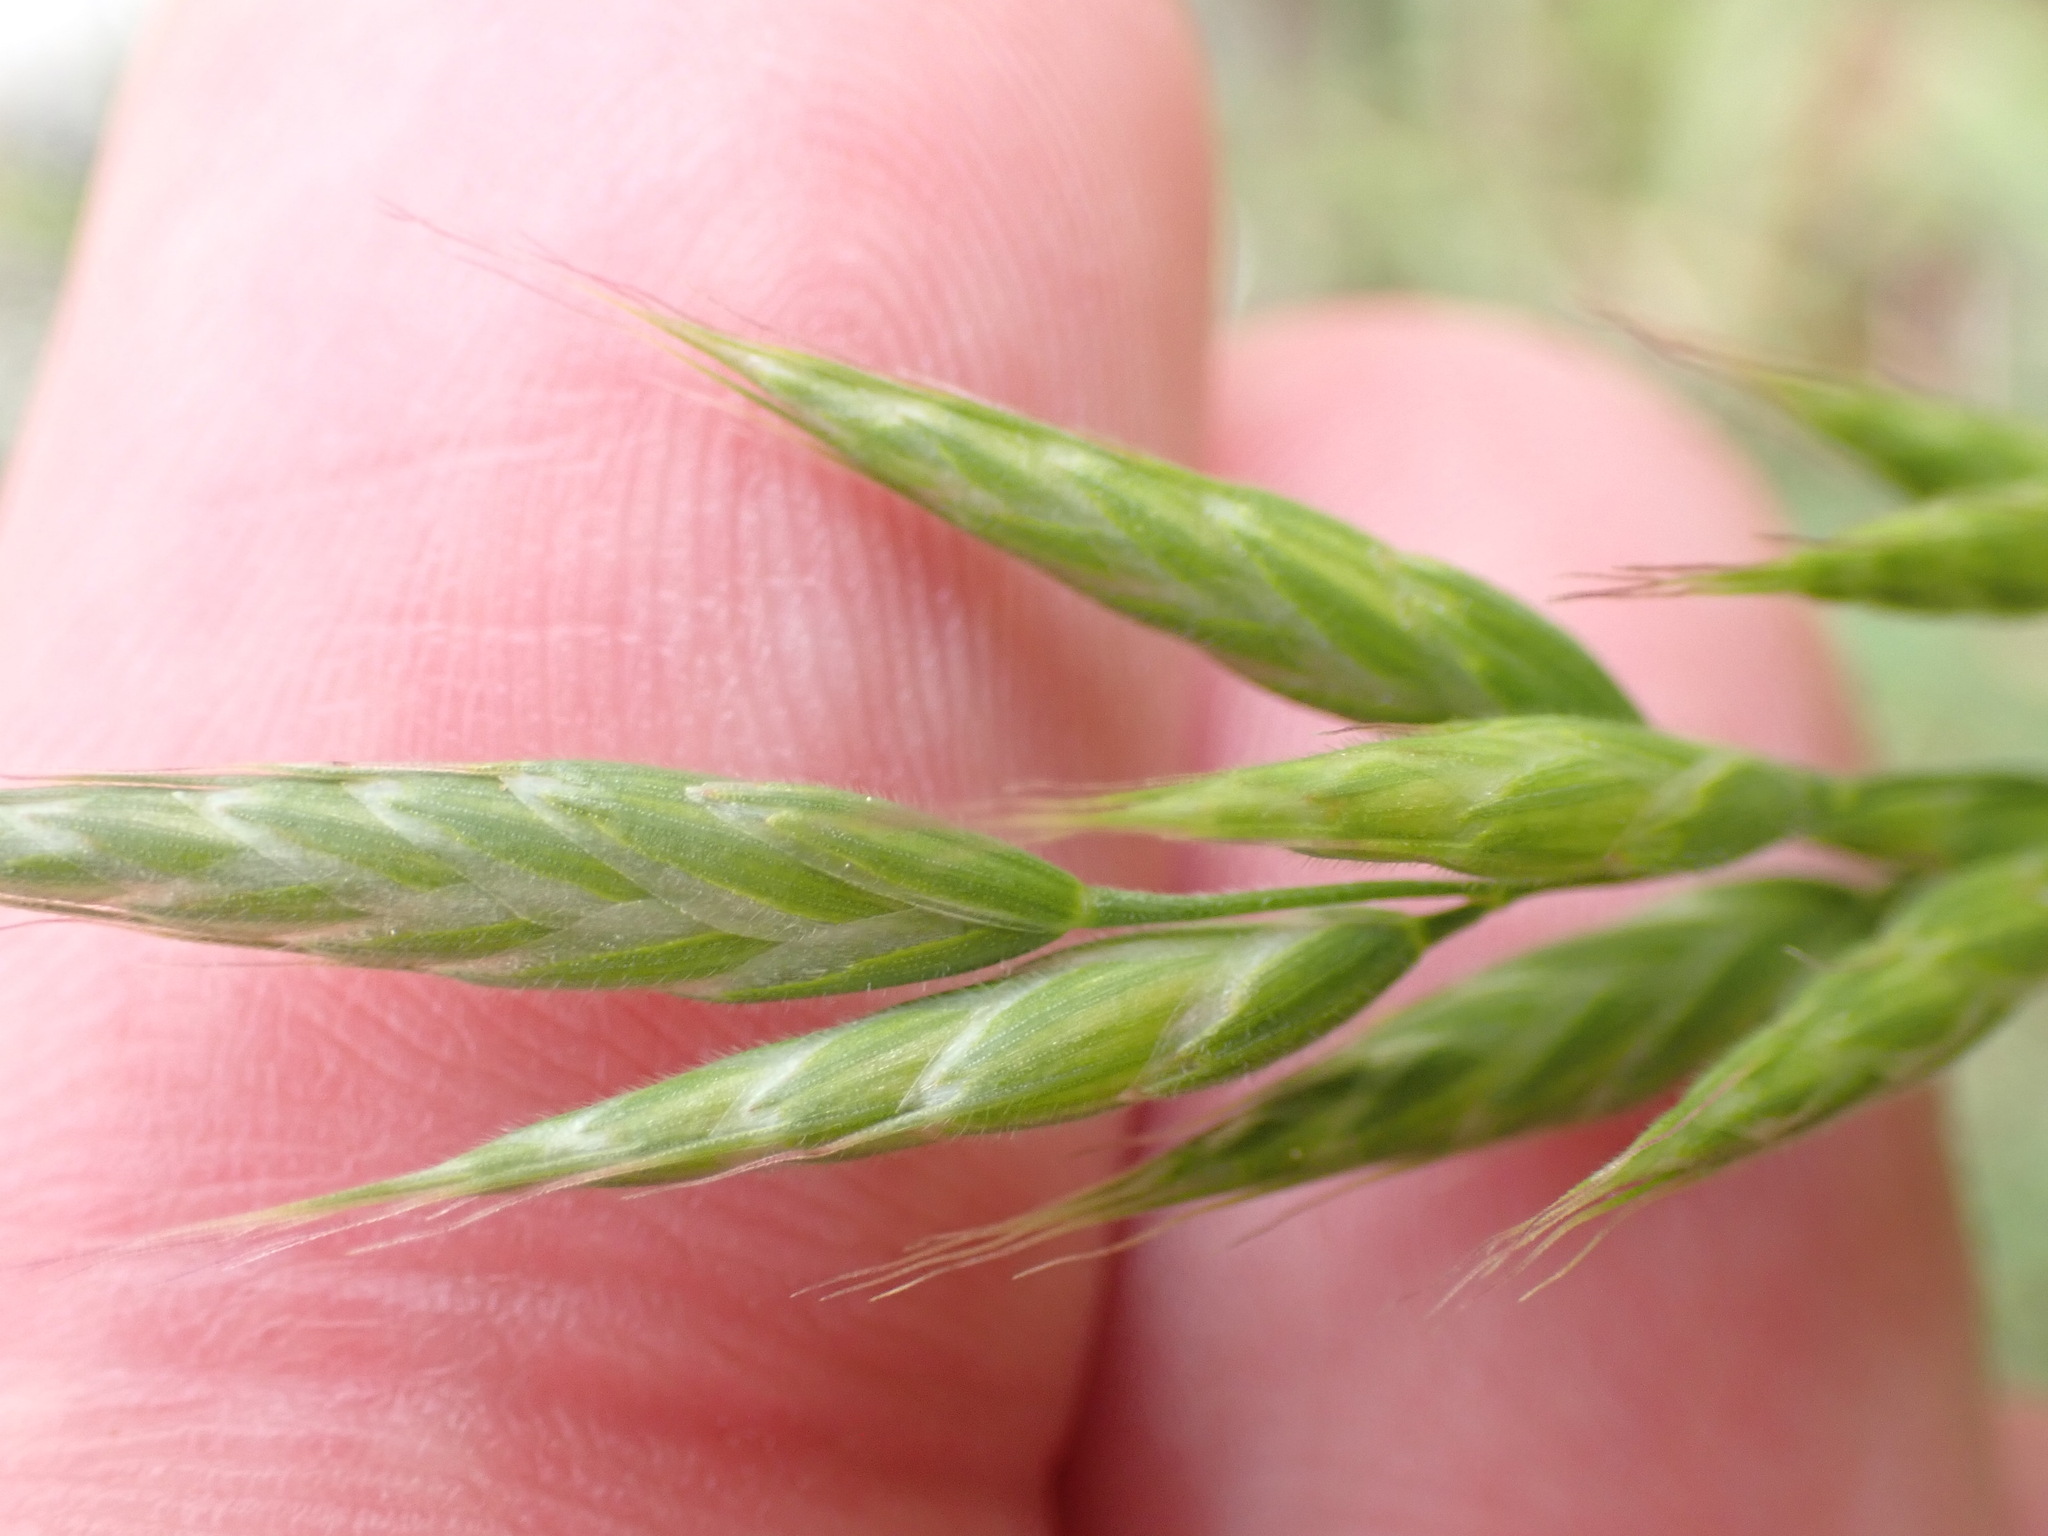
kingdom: Plantae
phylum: Tracheophyta
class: Liliopsida
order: Poales
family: Poaceae
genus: Bromus
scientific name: Bromus hordeaceus
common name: Soft brome
